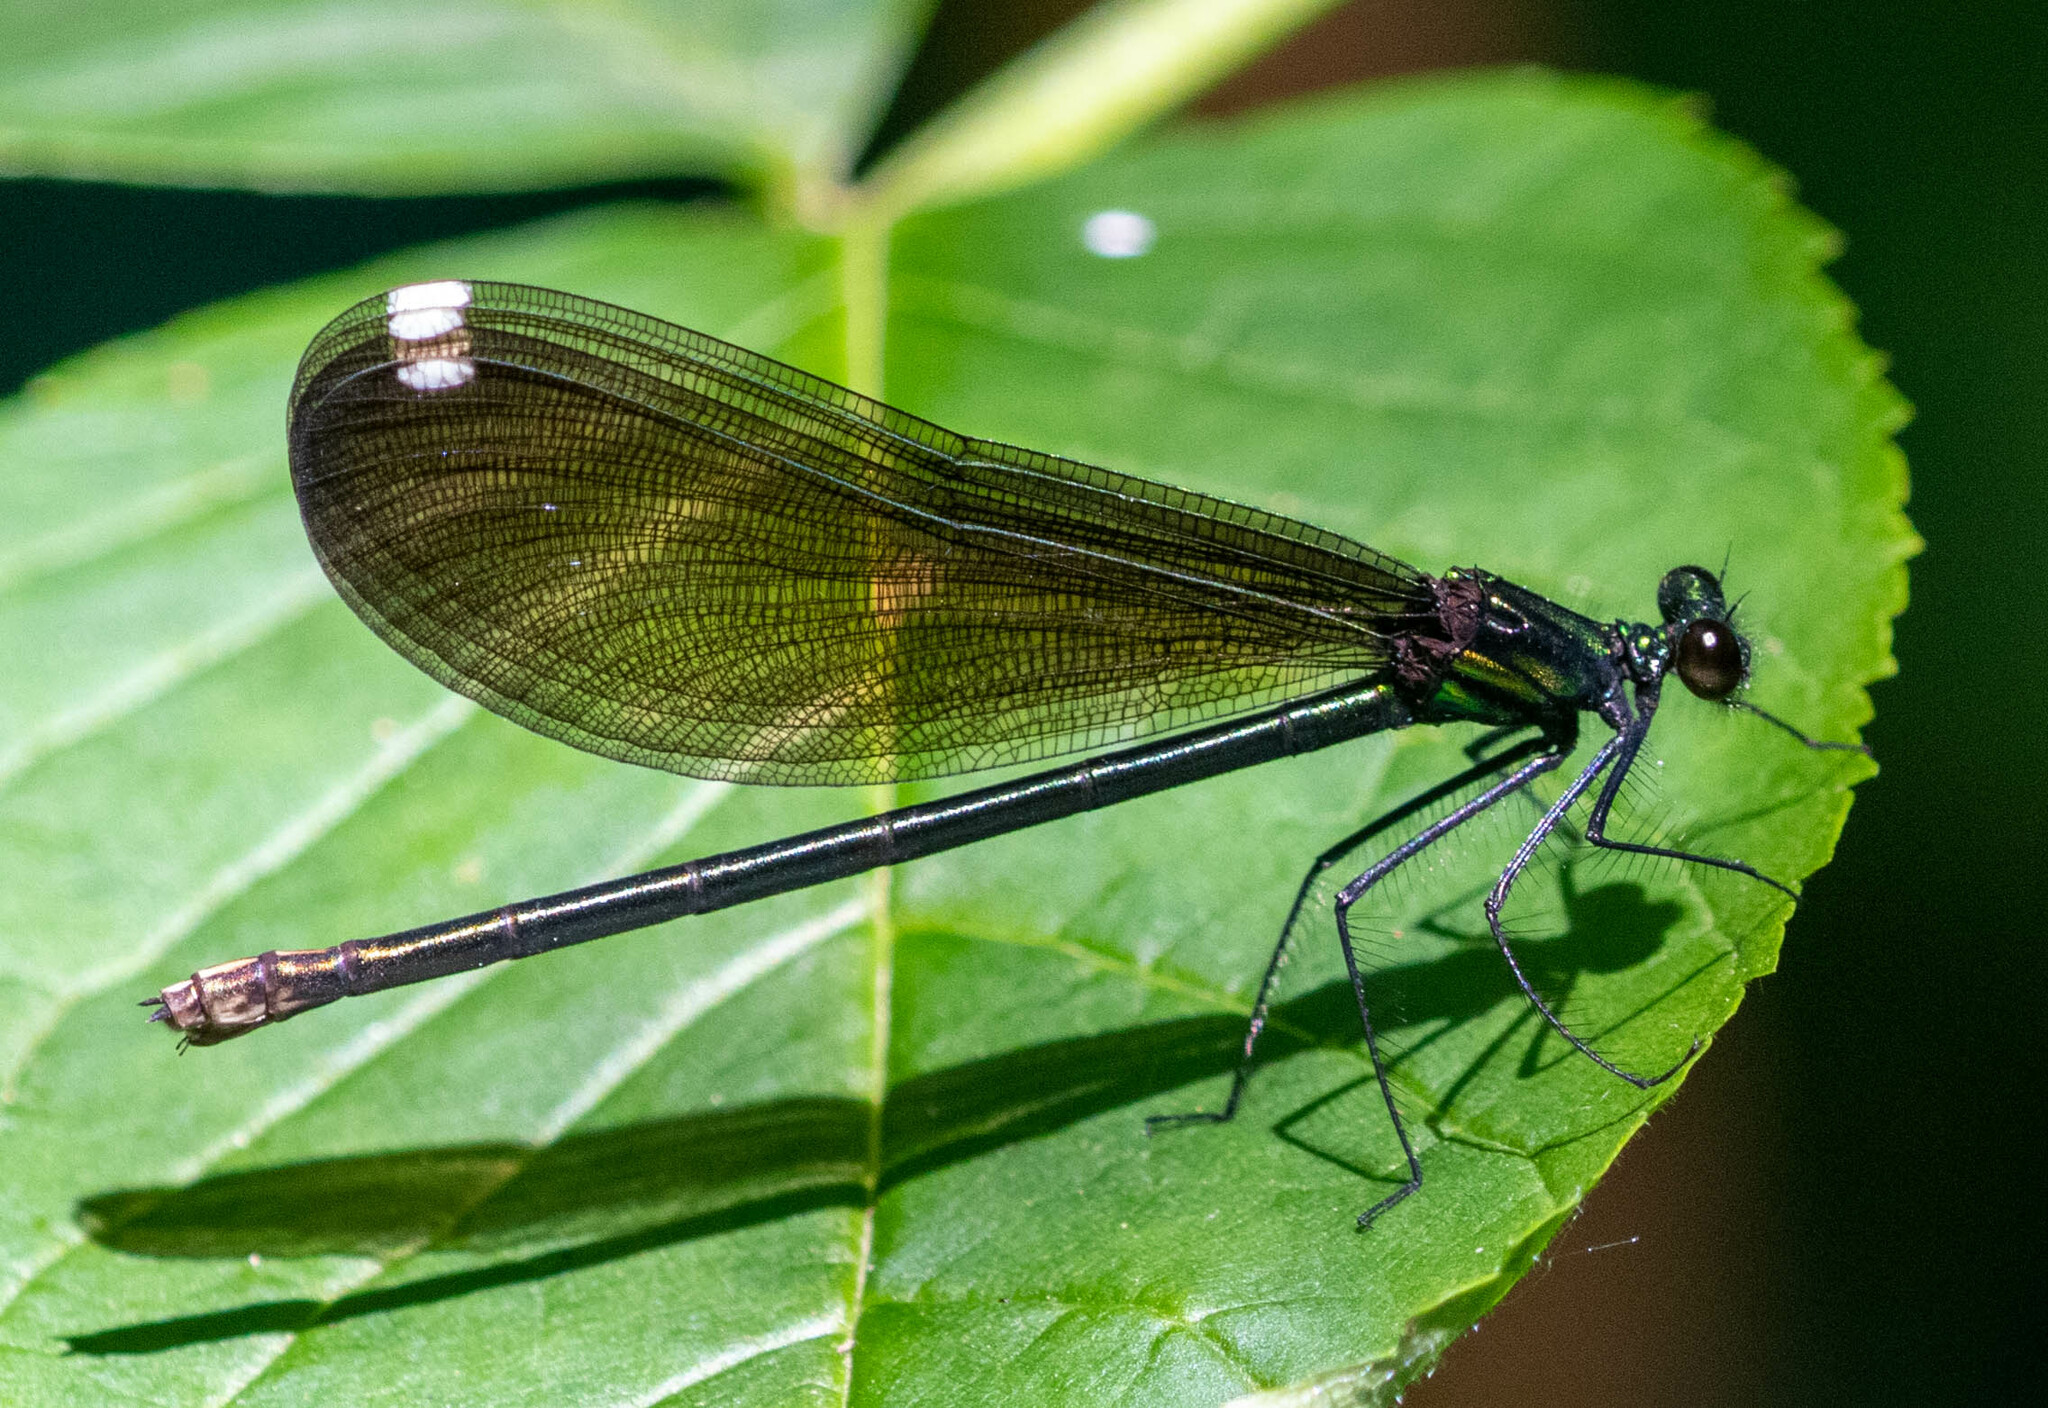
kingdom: Animalia
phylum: Arthropoda
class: Insecta
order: Odonata
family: Calopterygidae
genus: Calopteryx
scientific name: Calopteryx maculata
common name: Ebony jewelwing
